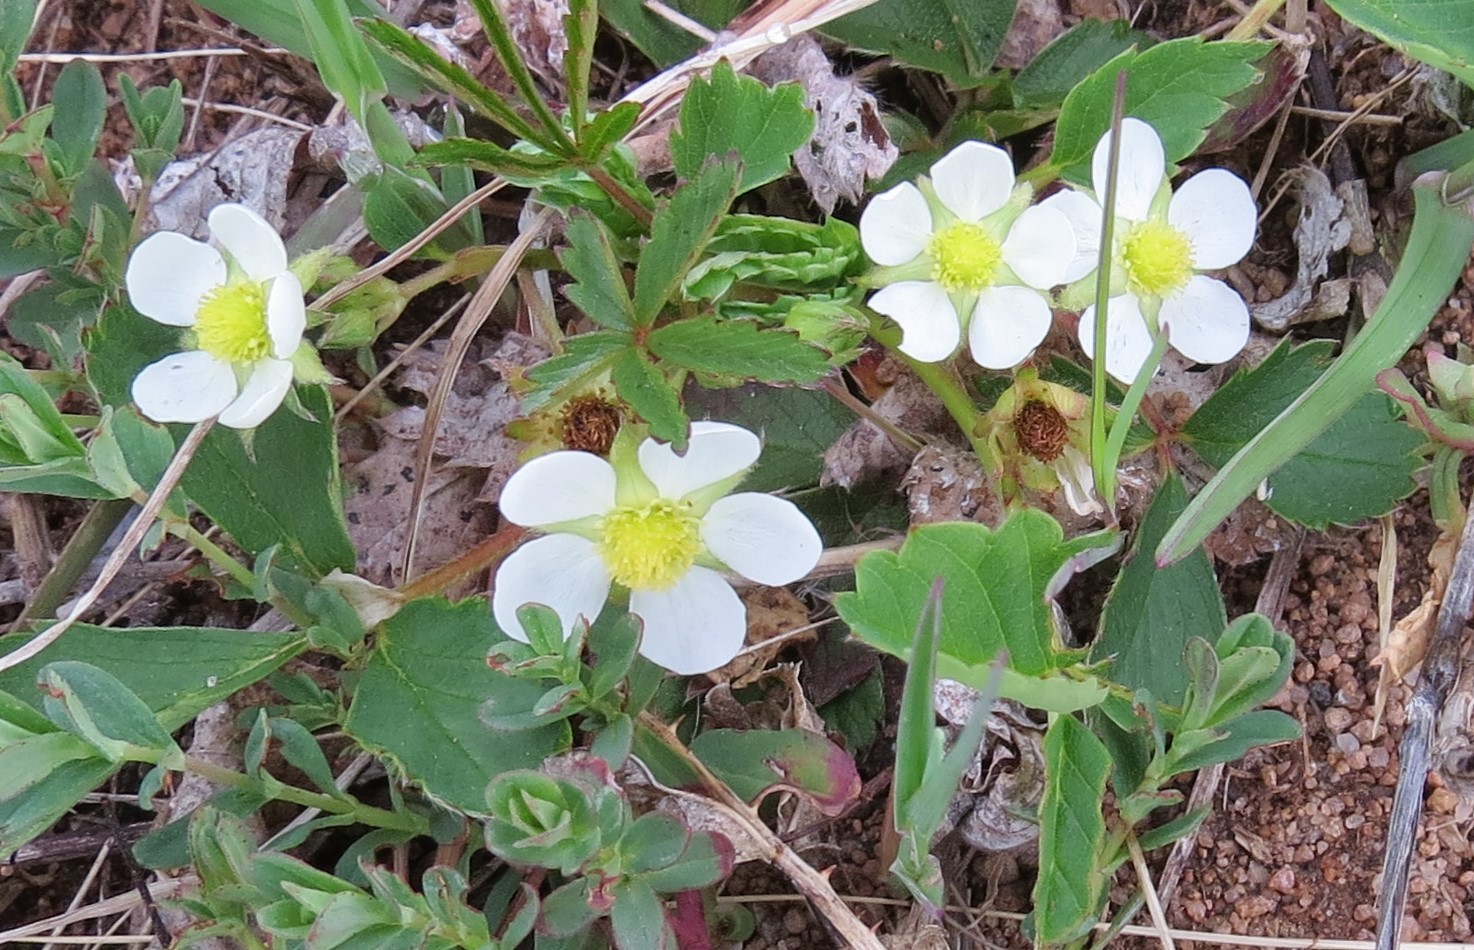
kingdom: Plantae
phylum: Tracheophyta
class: Magnoliopsida
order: Rosales
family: Rosaceae
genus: Fragaria
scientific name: Fragaria virginiana
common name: Thickleaved wild strawberry
